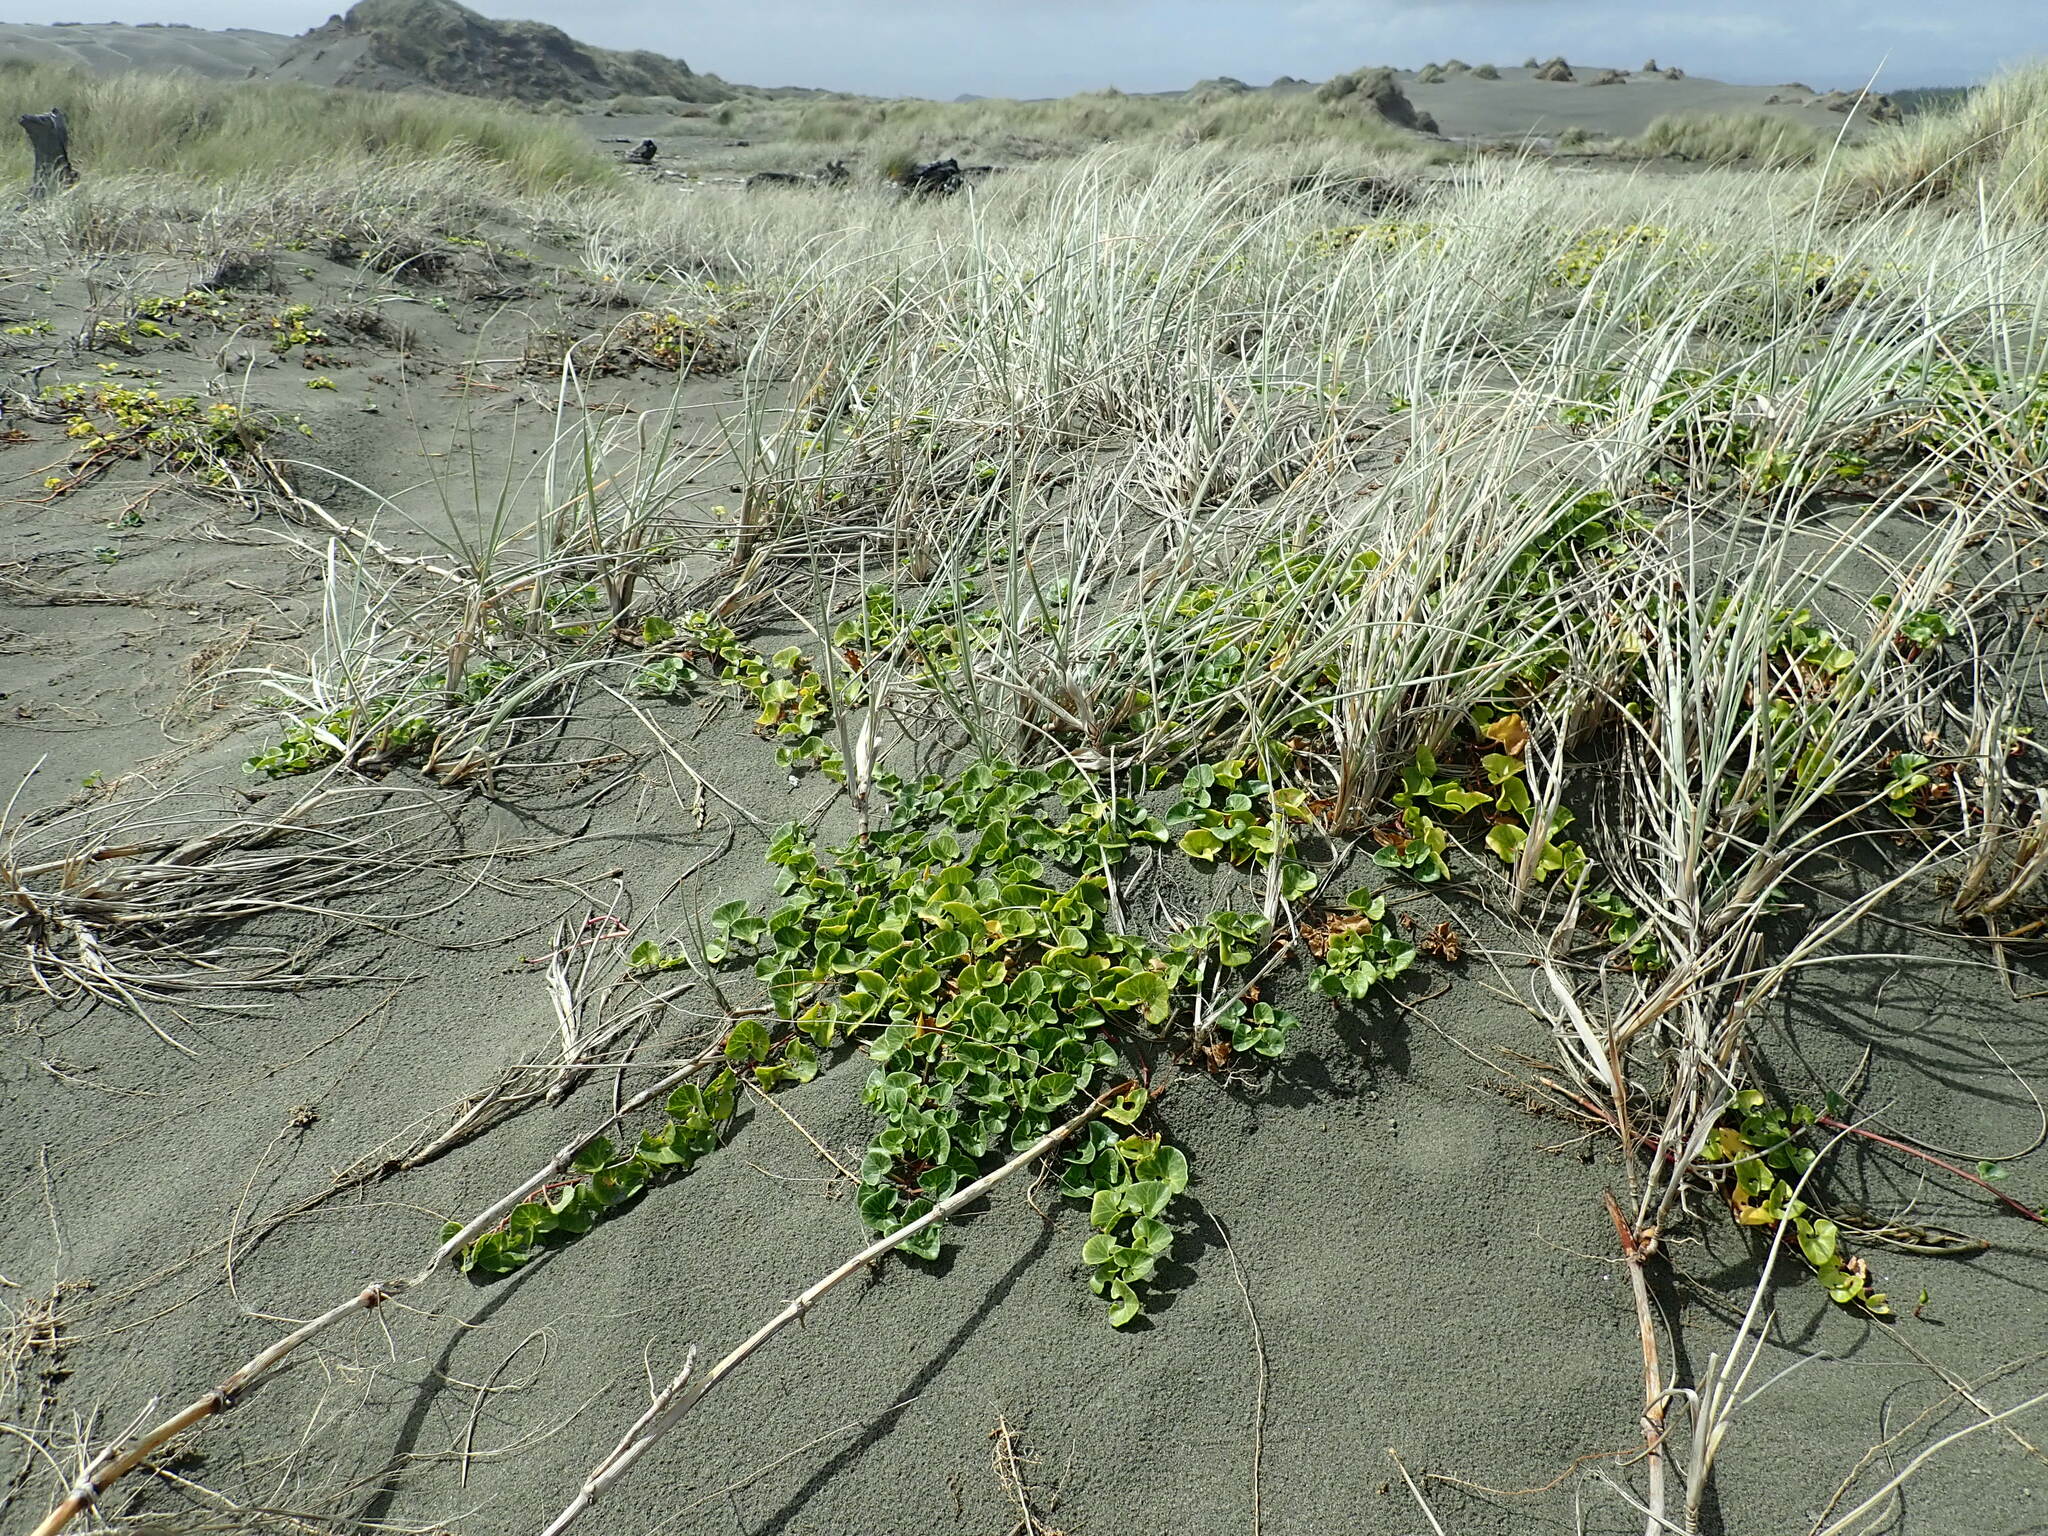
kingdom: Plantae
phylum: Tracheophyta
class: Magnoliopsida
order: Solanales
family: Convolvulaceae
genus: Calystegia
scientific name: Calystegia soldanella
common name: Sea bindweed
